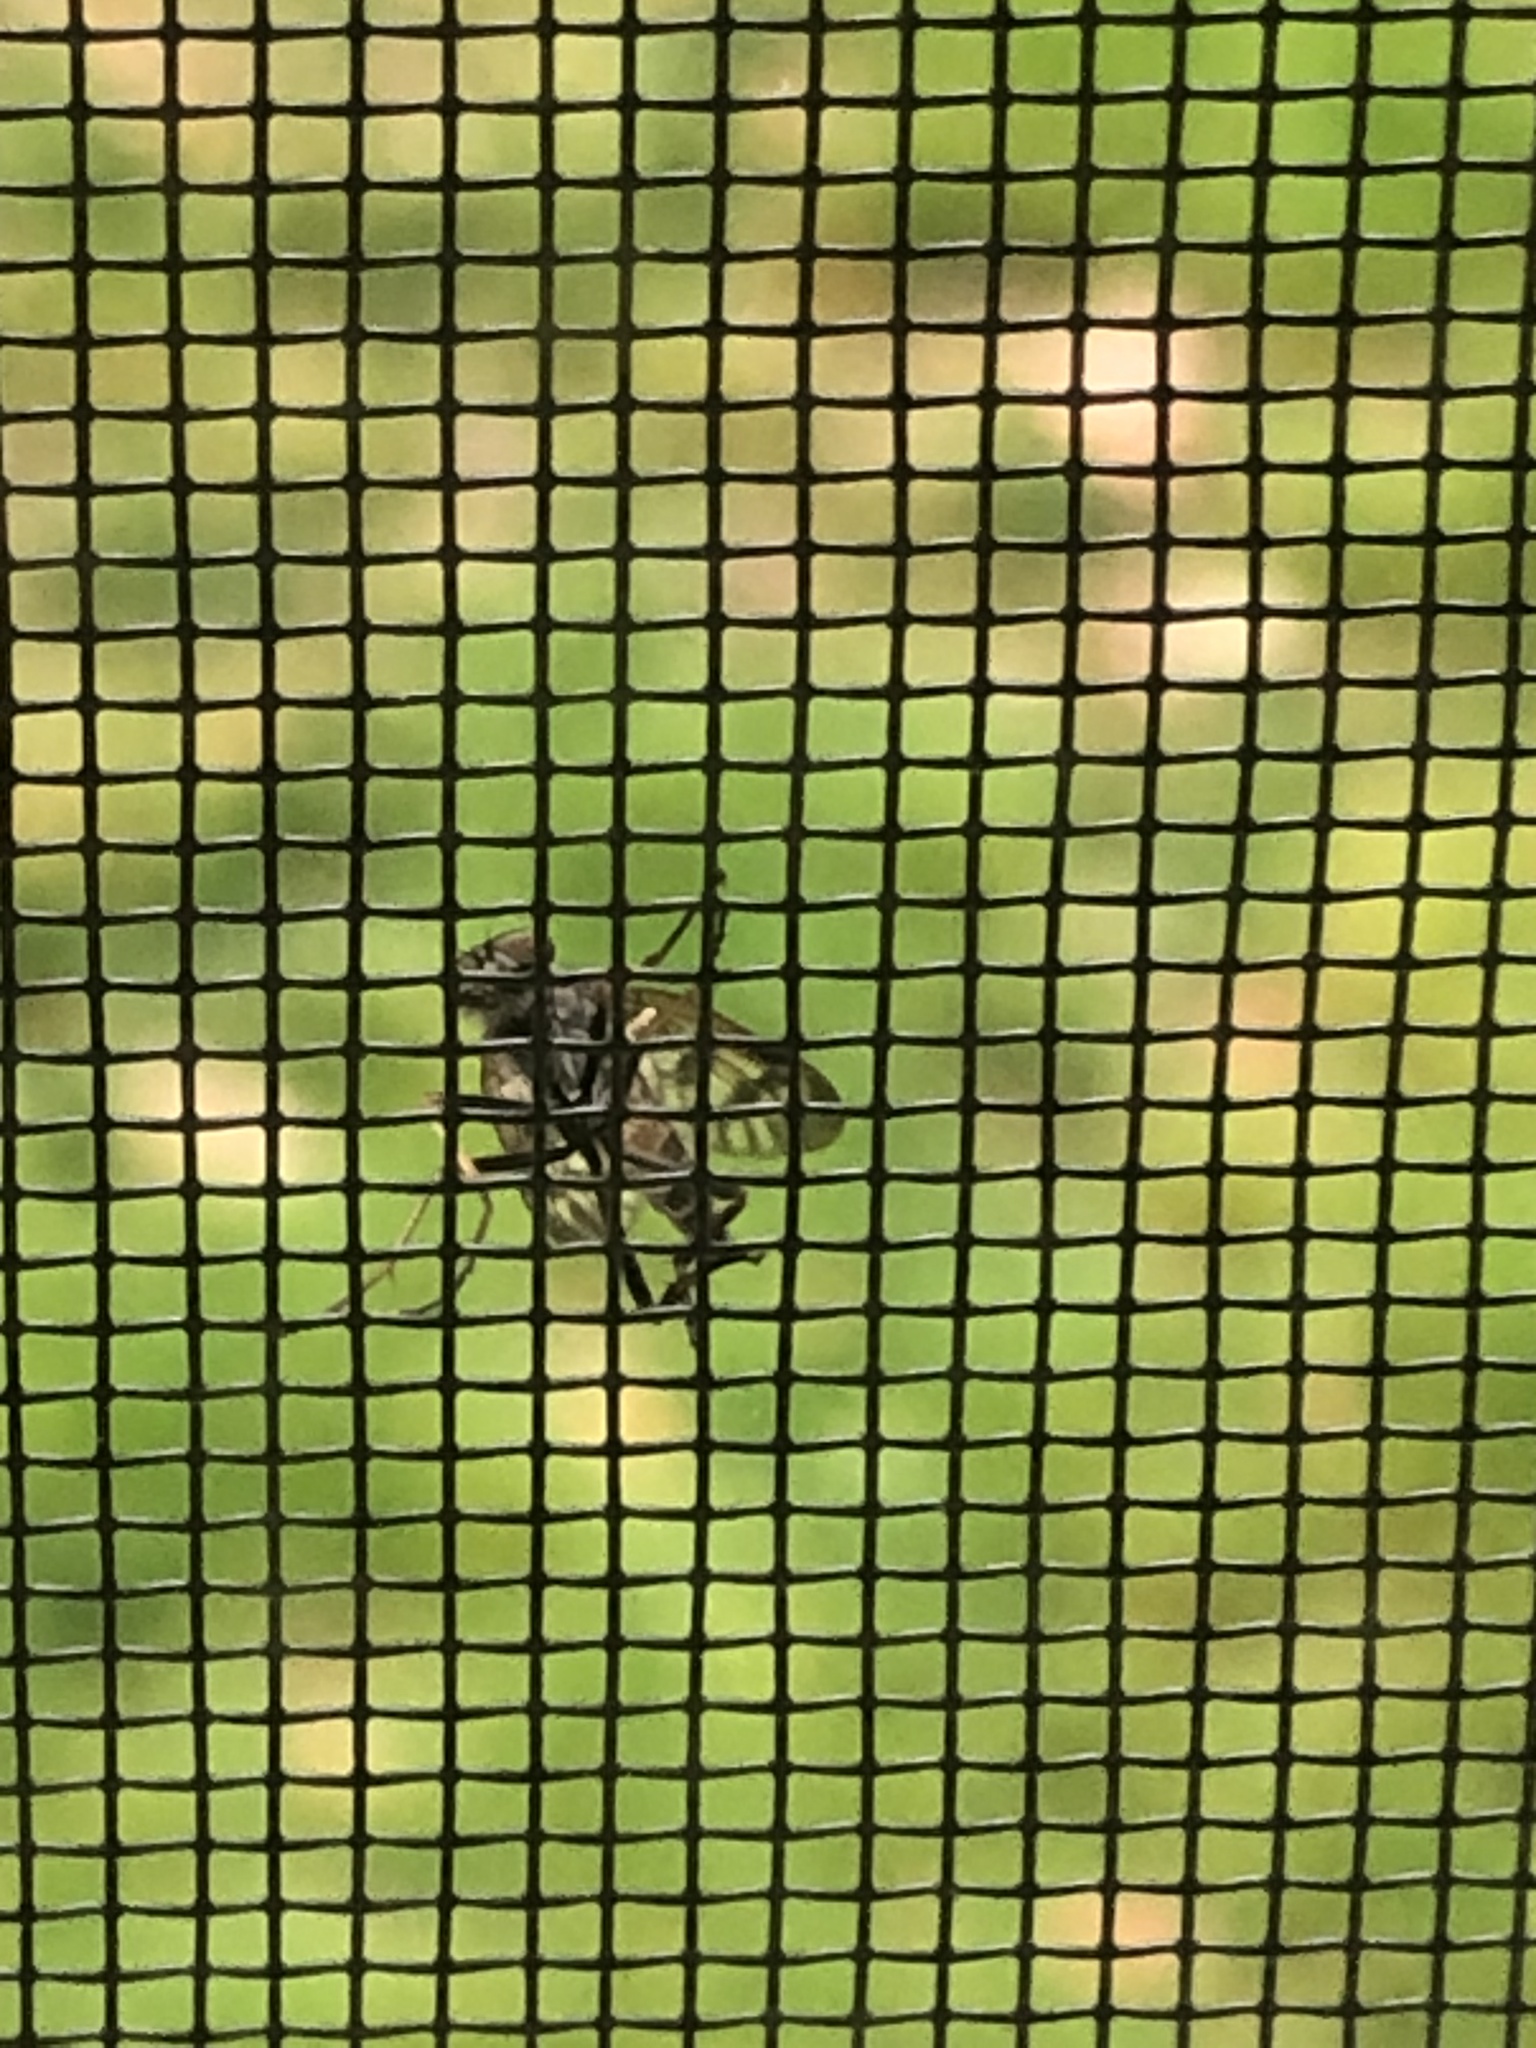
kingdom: Animalia
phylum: Arthropoda
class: Insecta
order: Diptera
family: Rhagionidae
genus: Rhagio
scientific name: Rhagio mystaceus
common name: Common snipe fly
